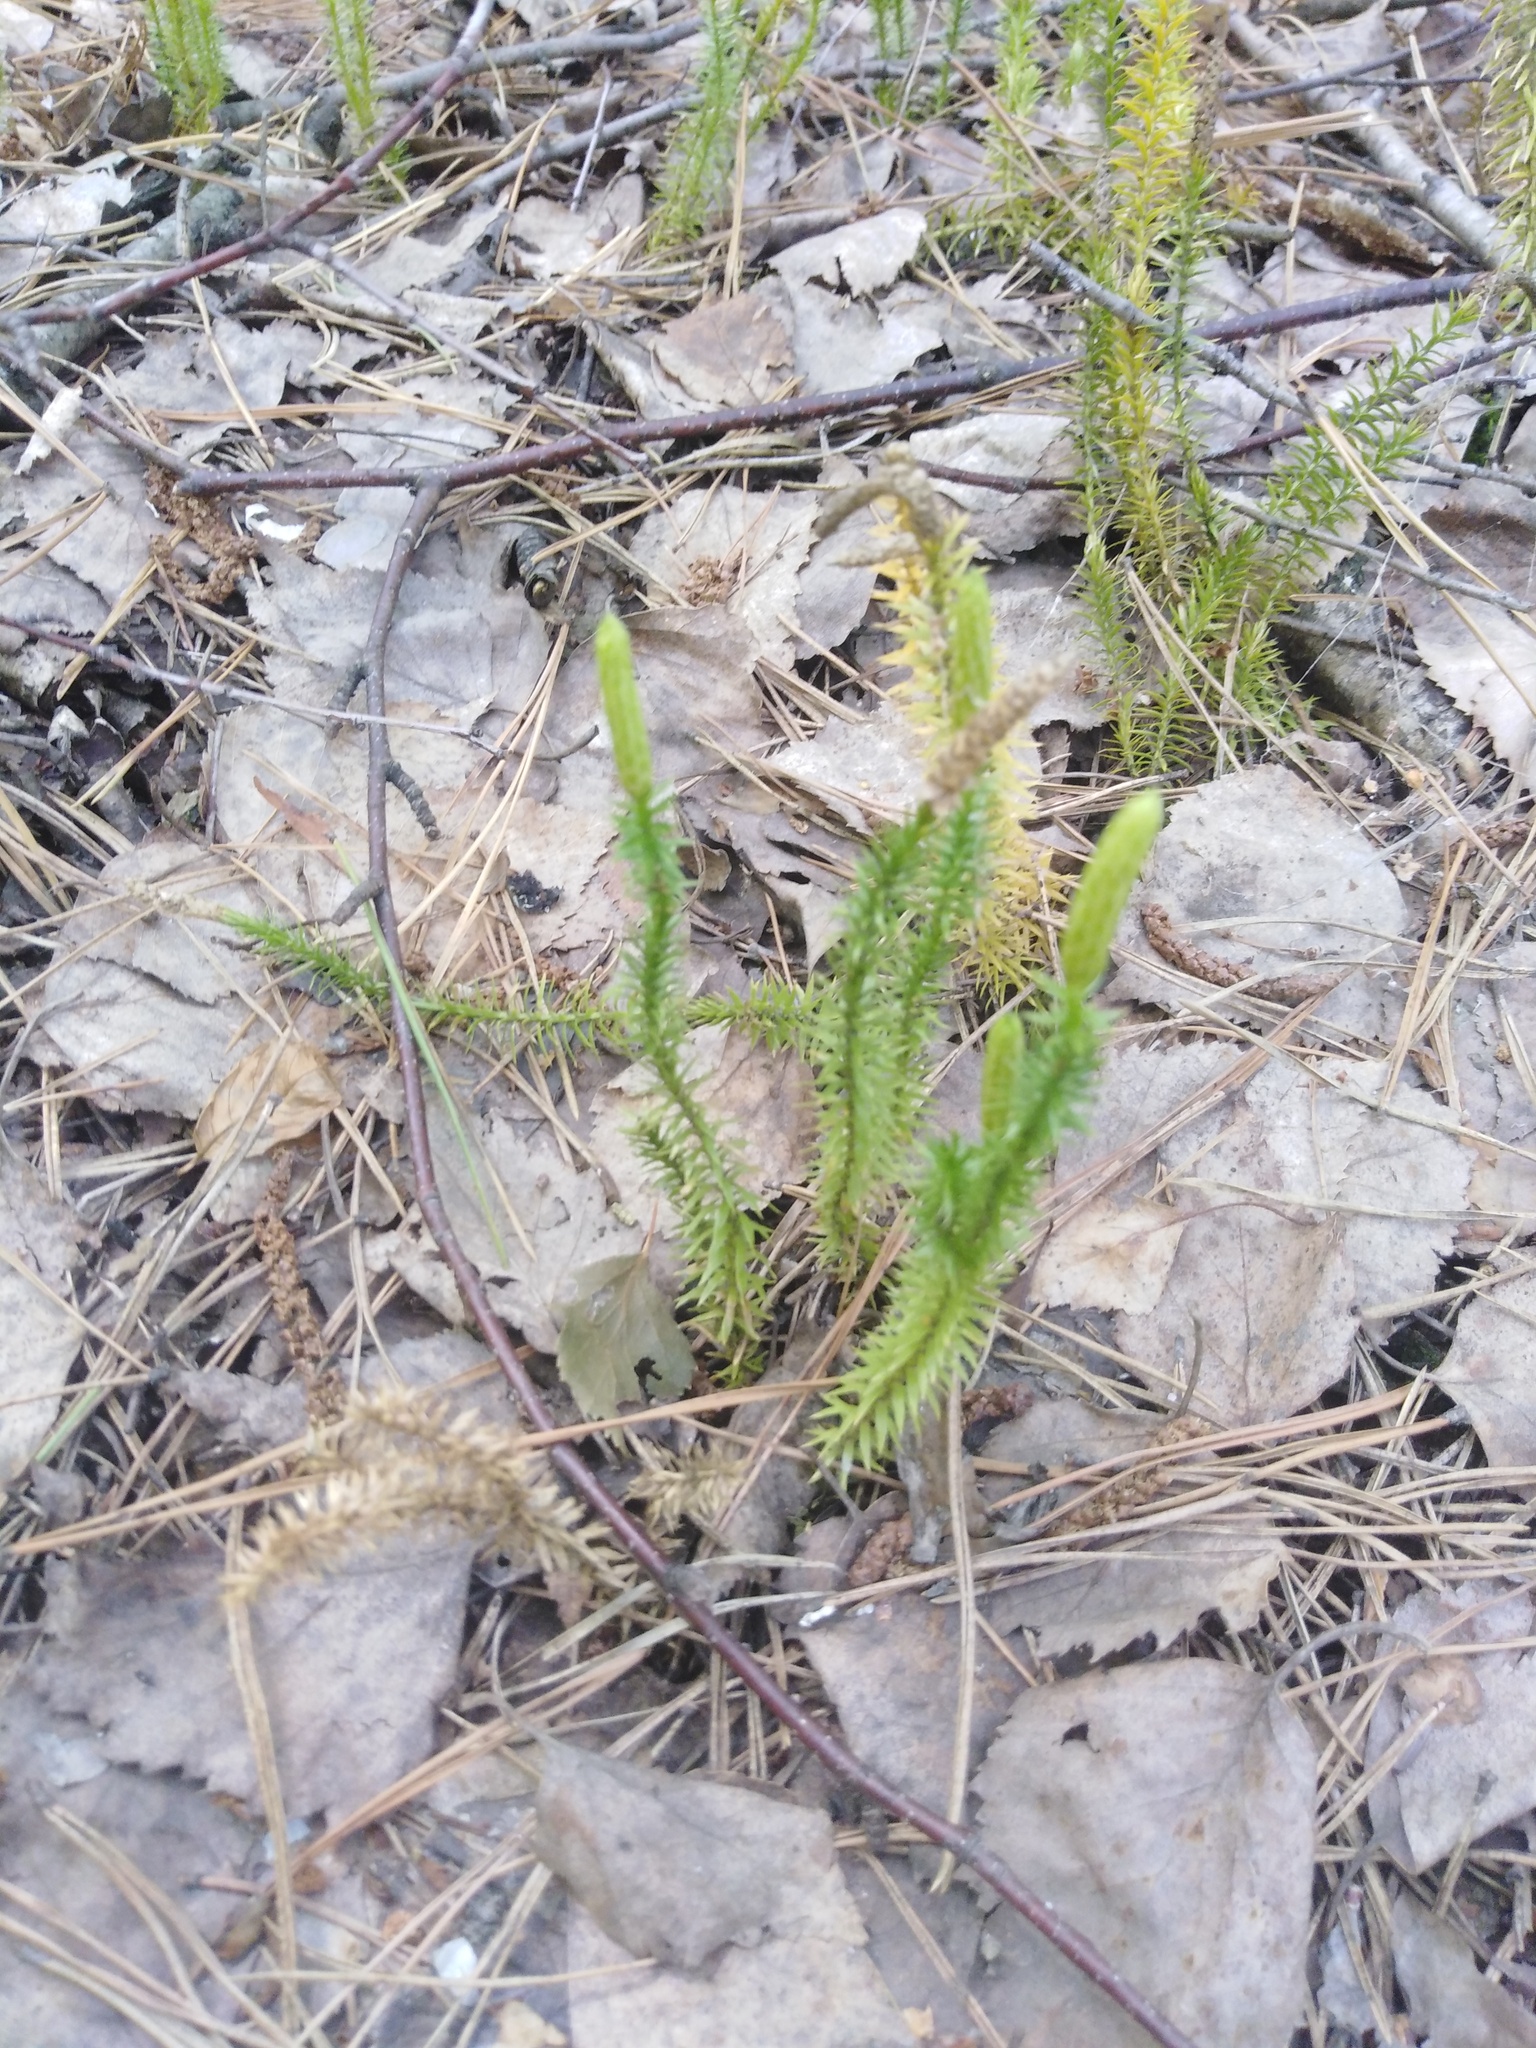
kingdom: Plantae
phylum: Tracheophyta
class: Lycopodiopsida
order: Lycopodiales
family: Lycopodiaceae
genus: Spinulum
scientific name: Spinulum annotinum
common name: Interrupted club-moss
